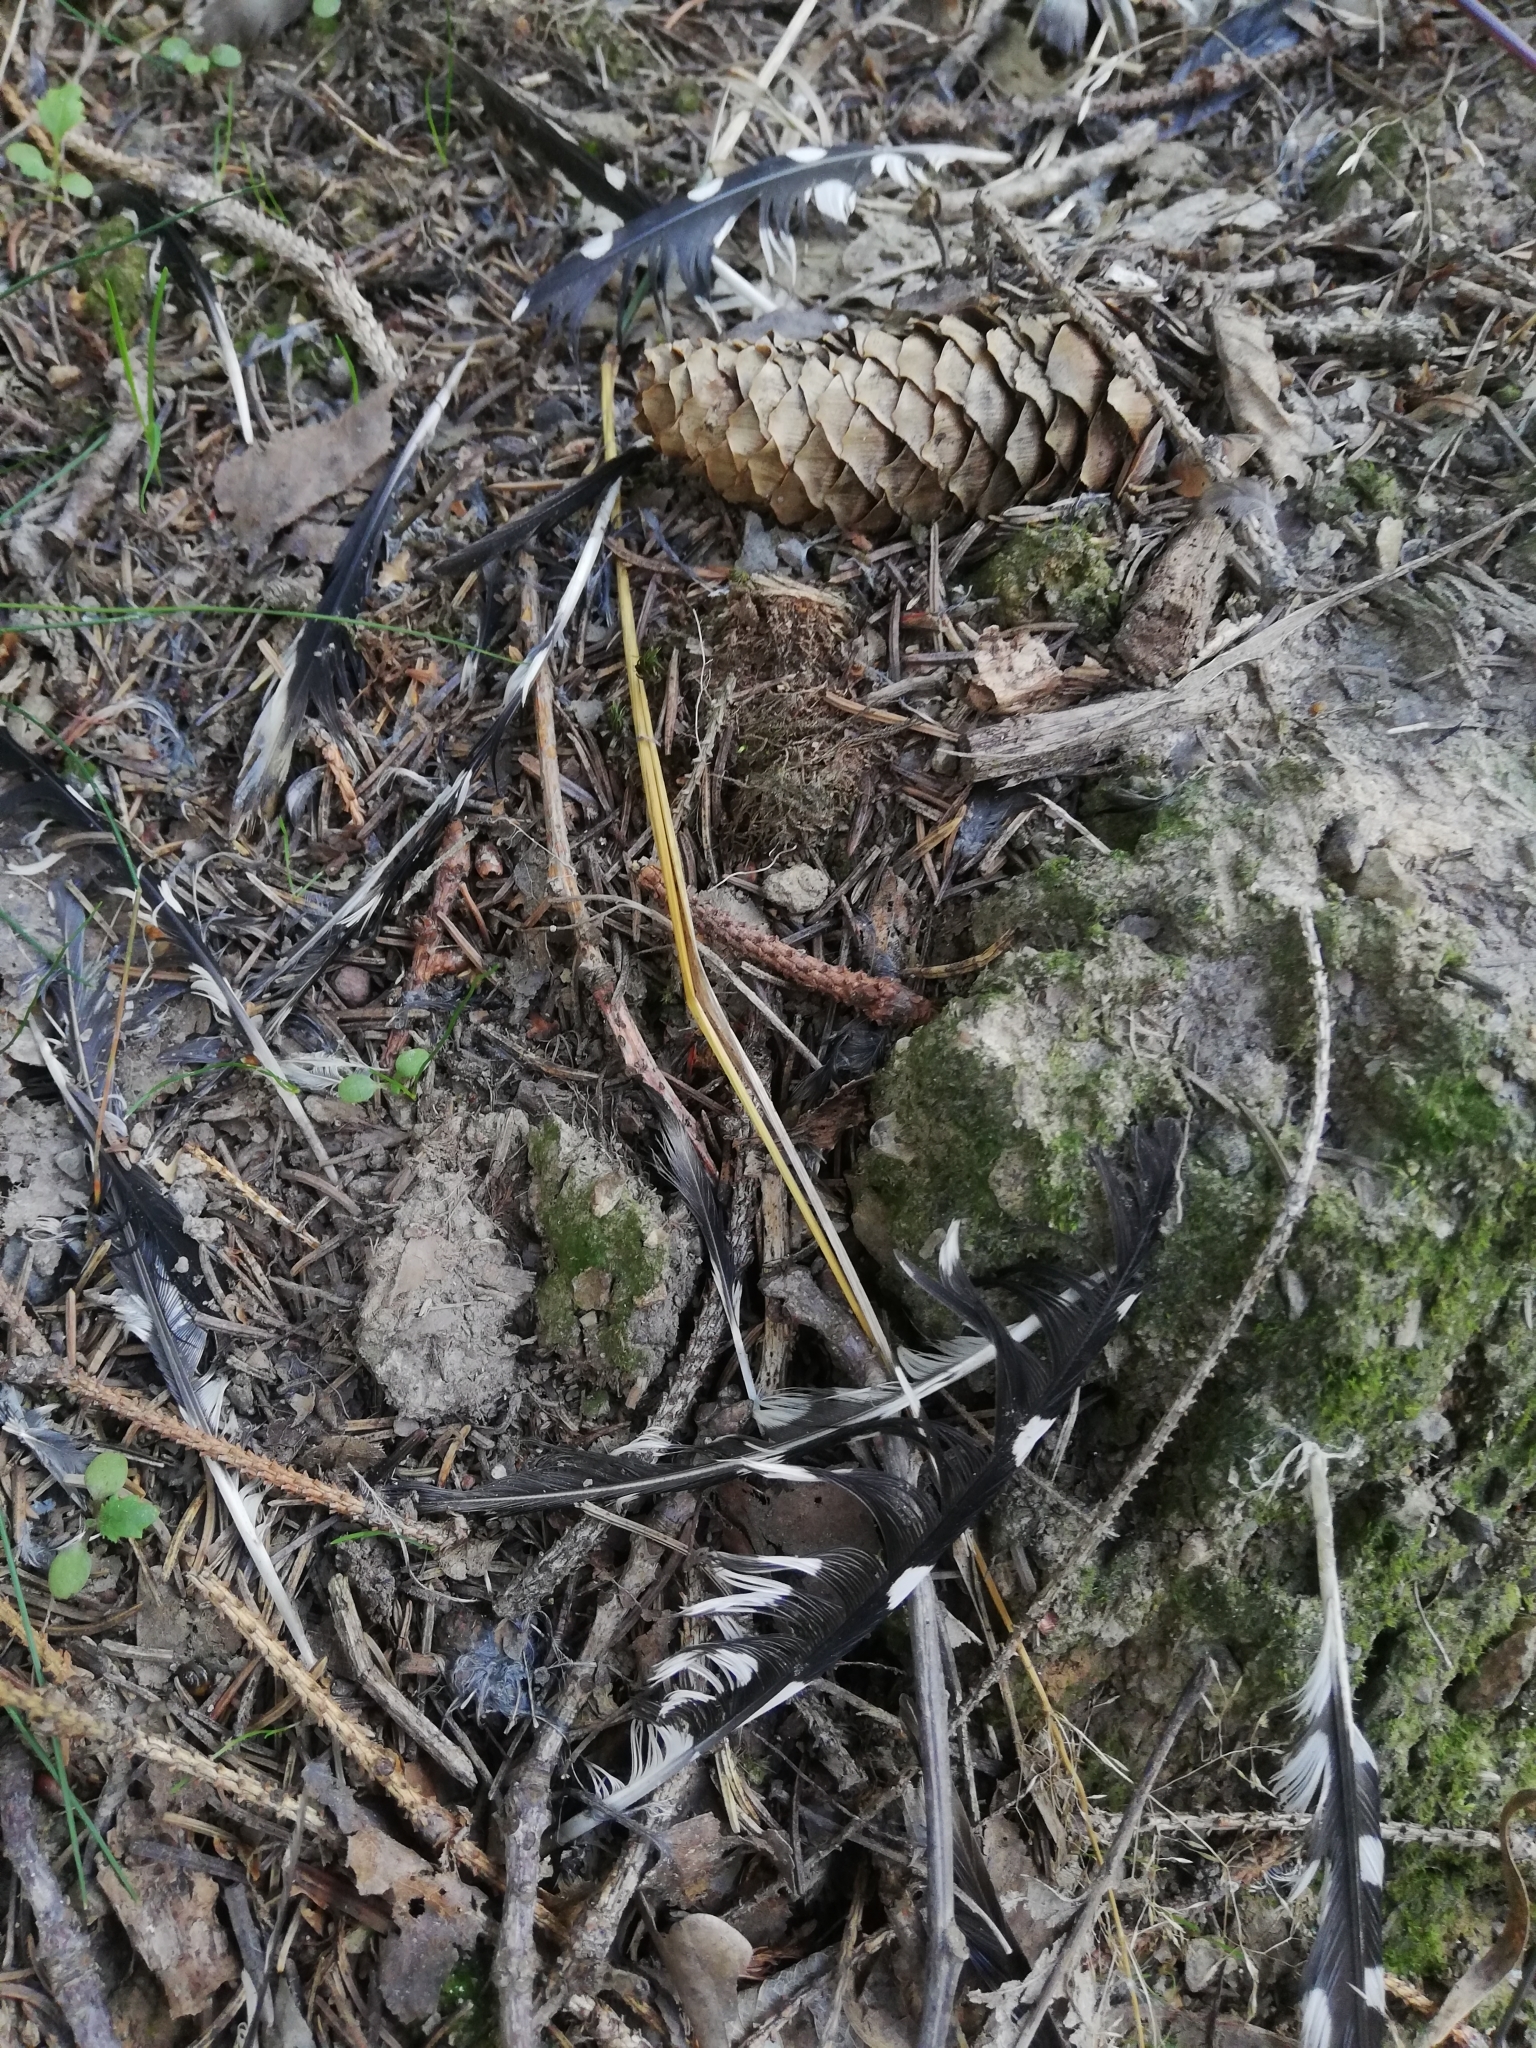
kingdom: Animalia
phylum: Chordata
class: Aves
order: Piciformes
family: Picidae
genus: Dendrocopos
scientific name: Dendrocopos major
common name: Great spotted woodpecker
